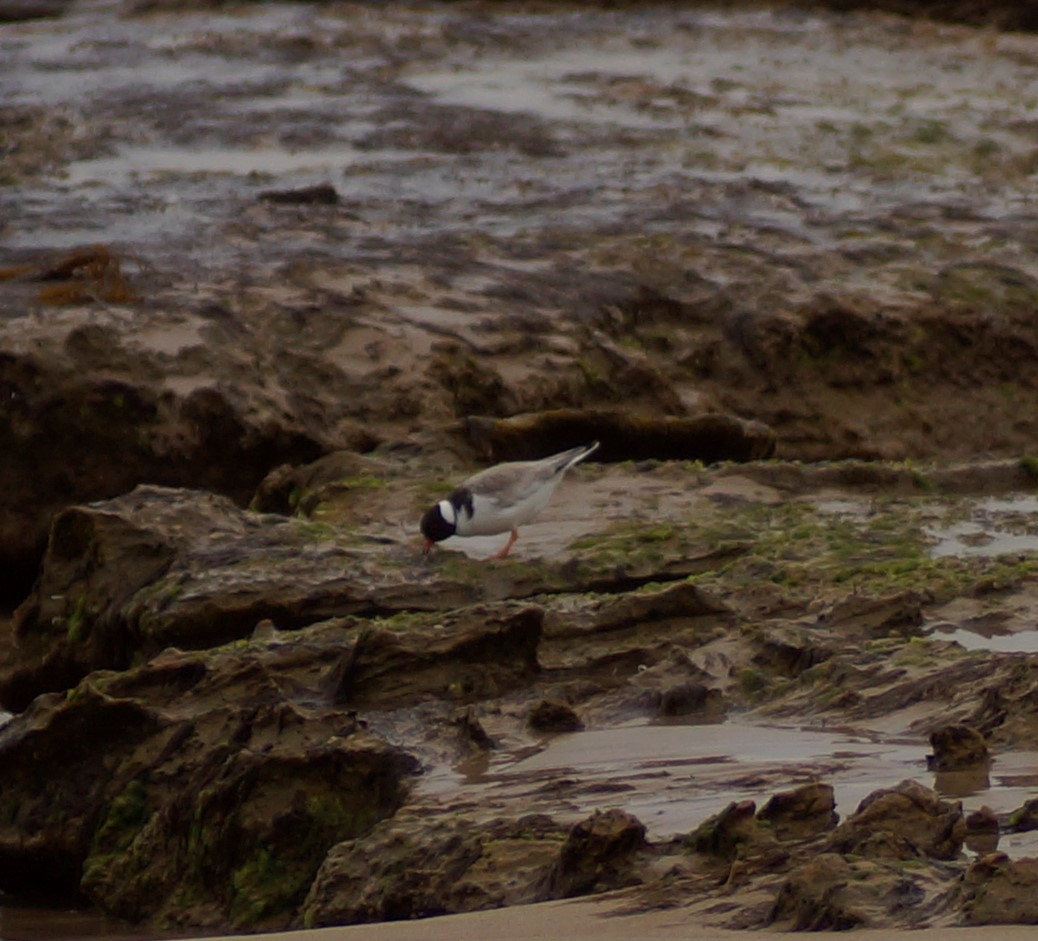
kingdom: Animalia
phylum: Chordata
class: Aves
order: Charadriiformes
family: Charadriidae
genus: Thinornis
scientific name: Thinornis cucullatus
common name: Hooded dotterel
